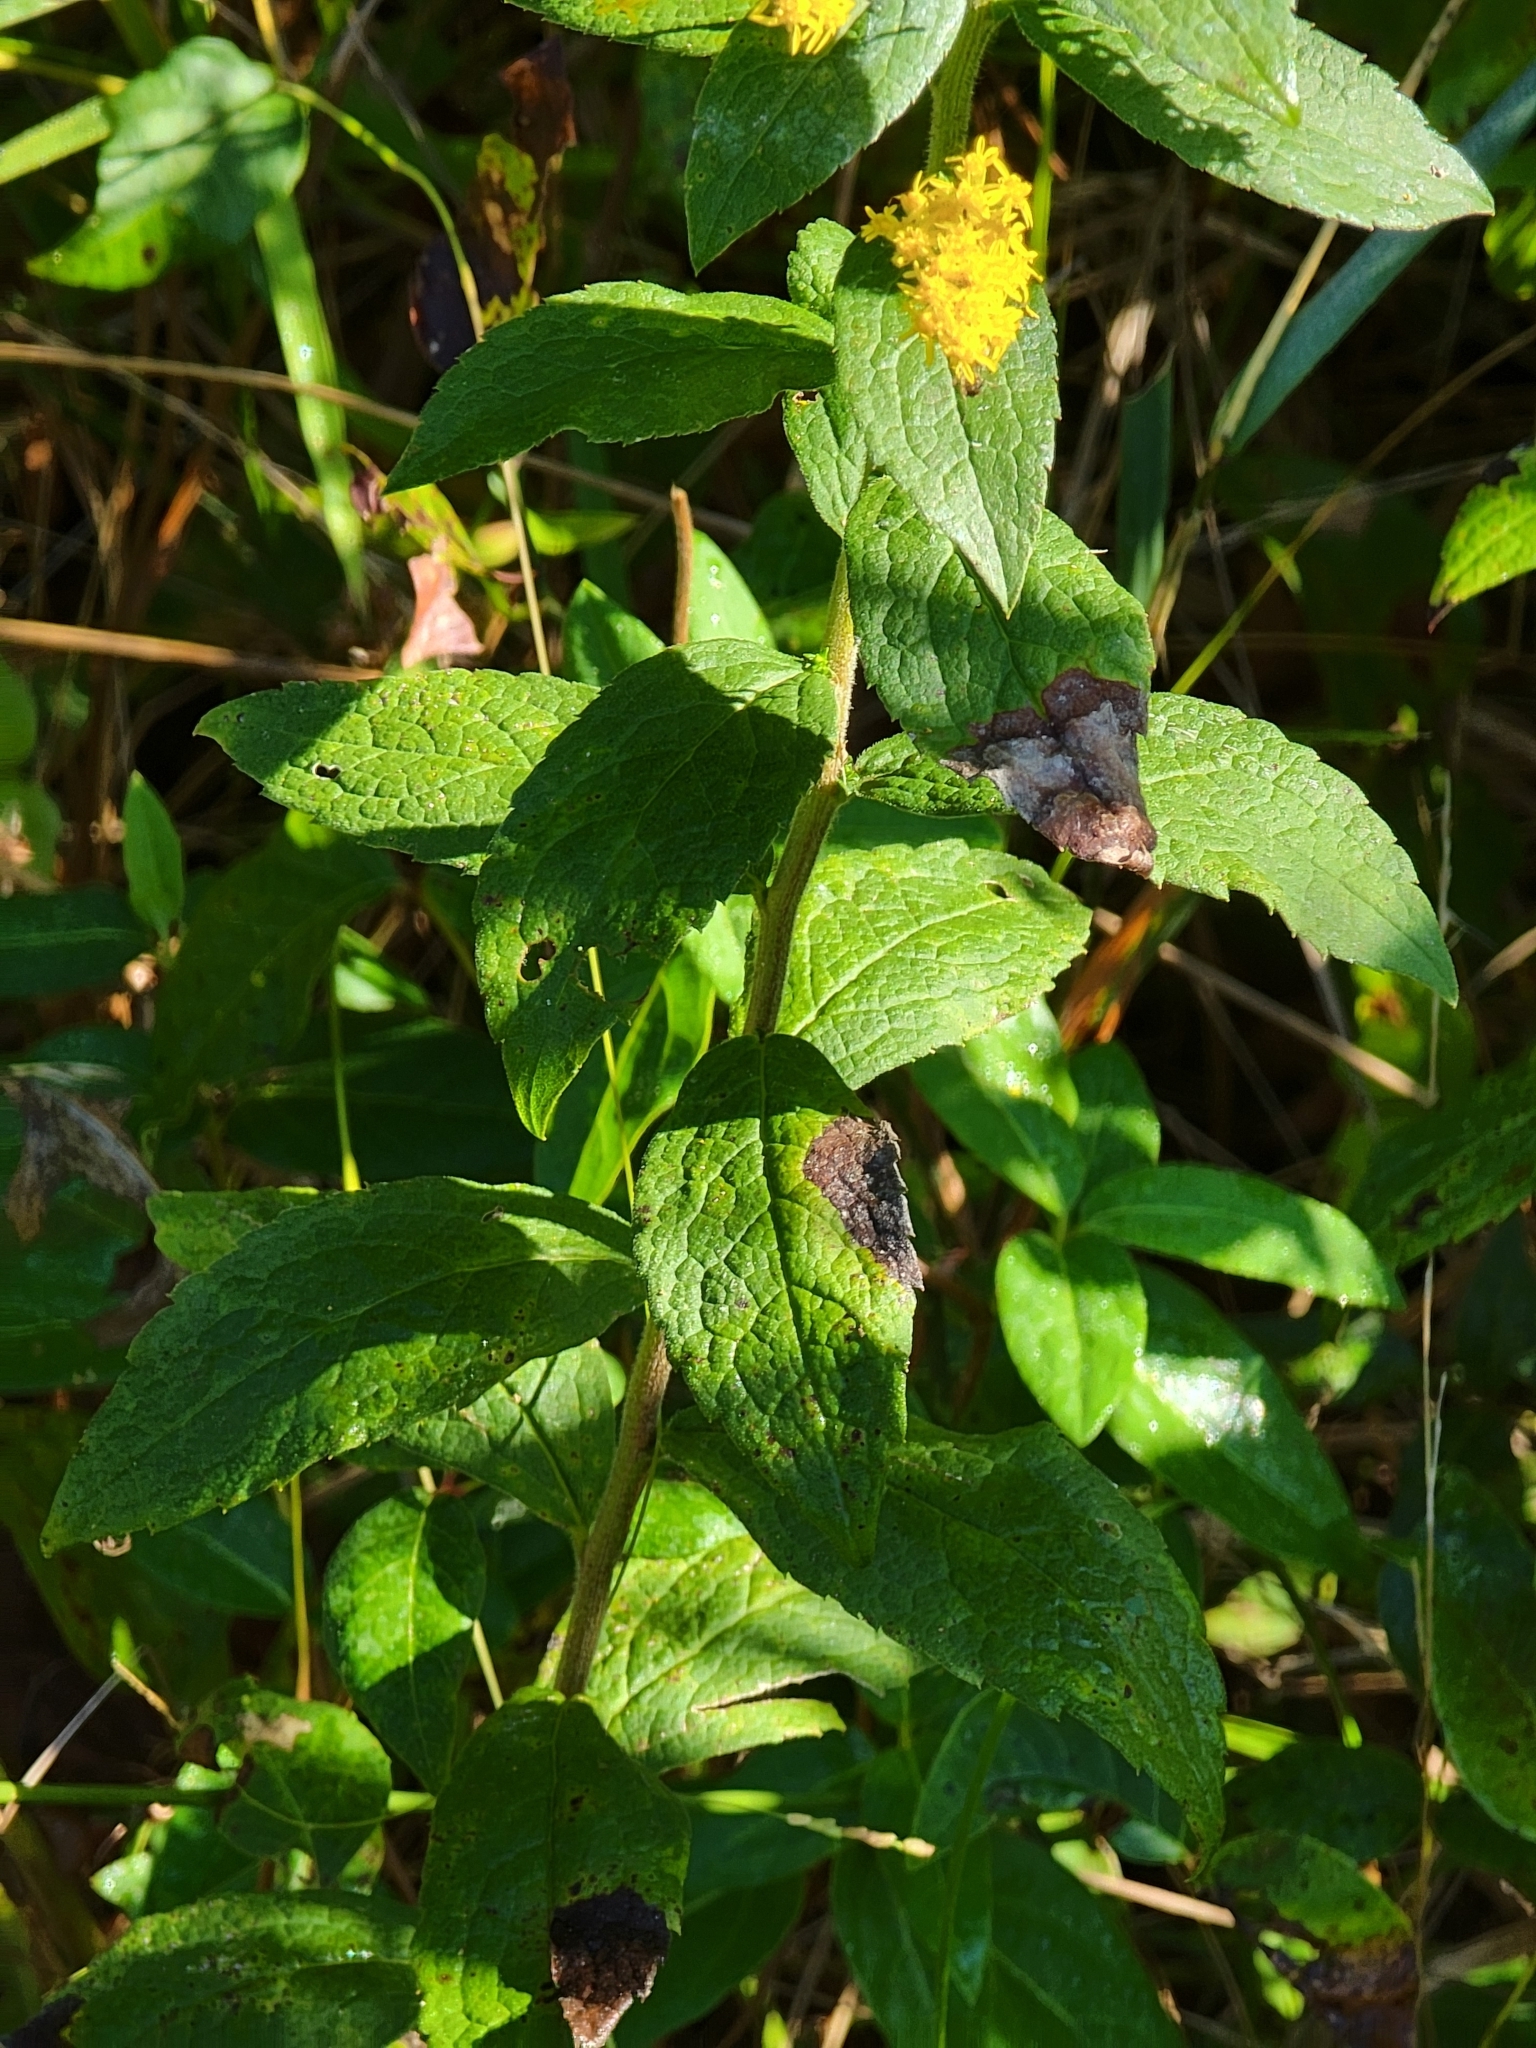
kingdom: Plantae
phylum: Tracheophyta
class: Magnoliopsida
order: Asterales
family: Asteraceae
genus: Solidago
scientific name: Solidago rugosa
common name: Rough-stemmed goldenrod
